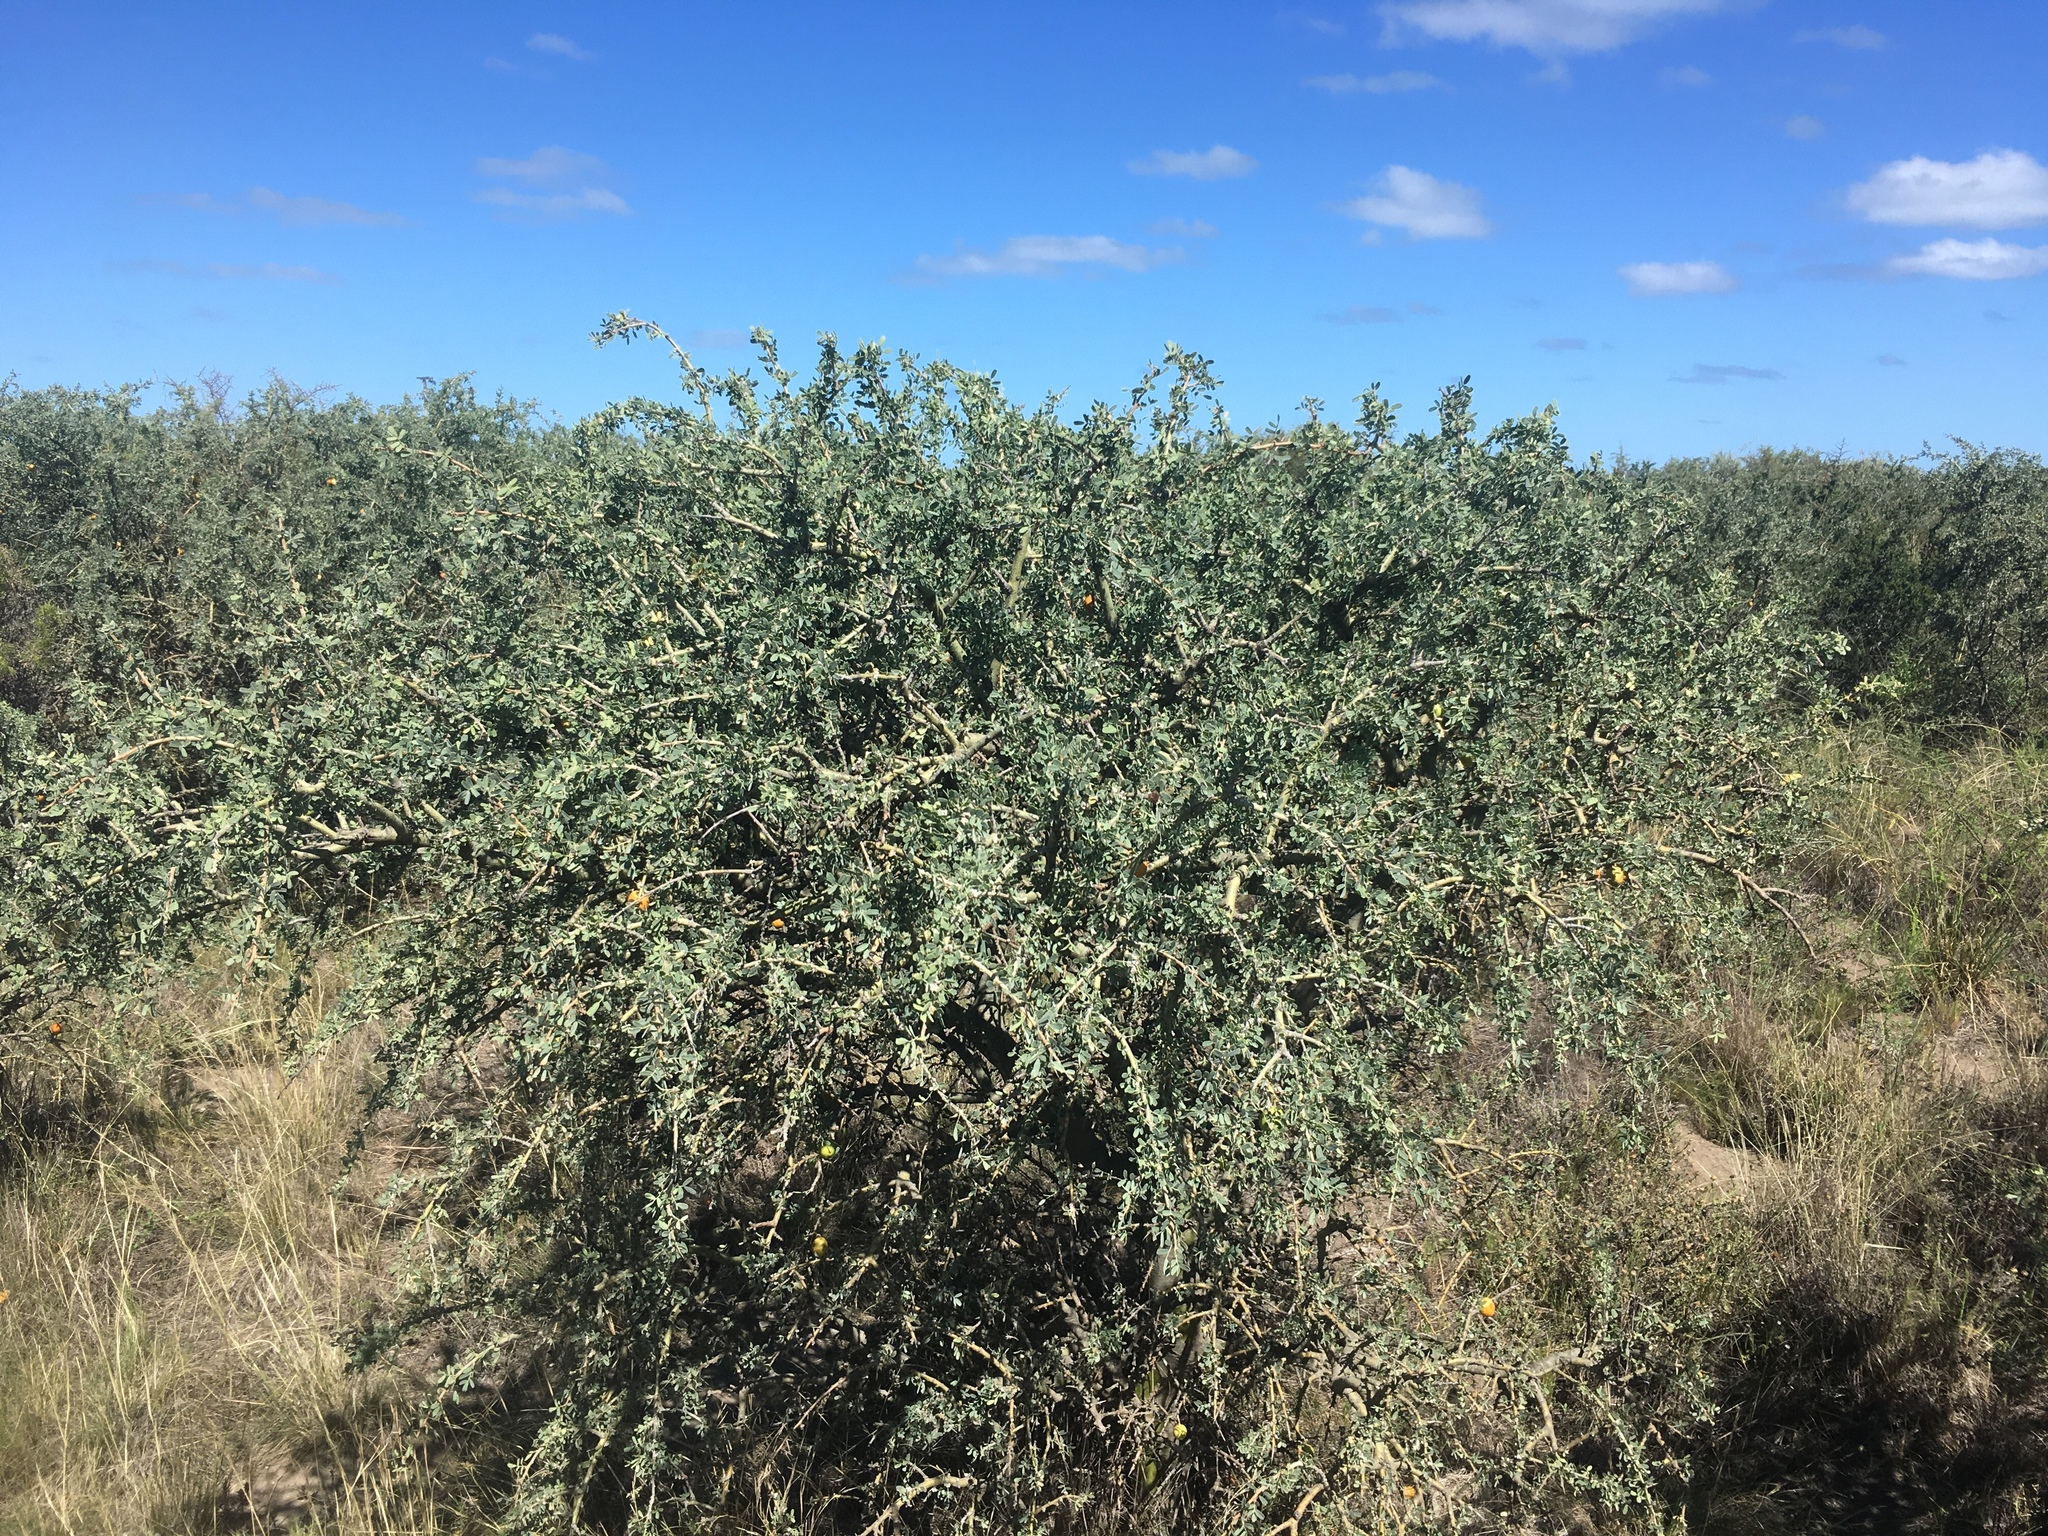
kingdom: Plantae
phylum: Tracheophyta
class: Magnoliopsida
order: Fabales
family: Fabaceae
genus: Geoffroea
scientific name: Geoffroea decorticans
